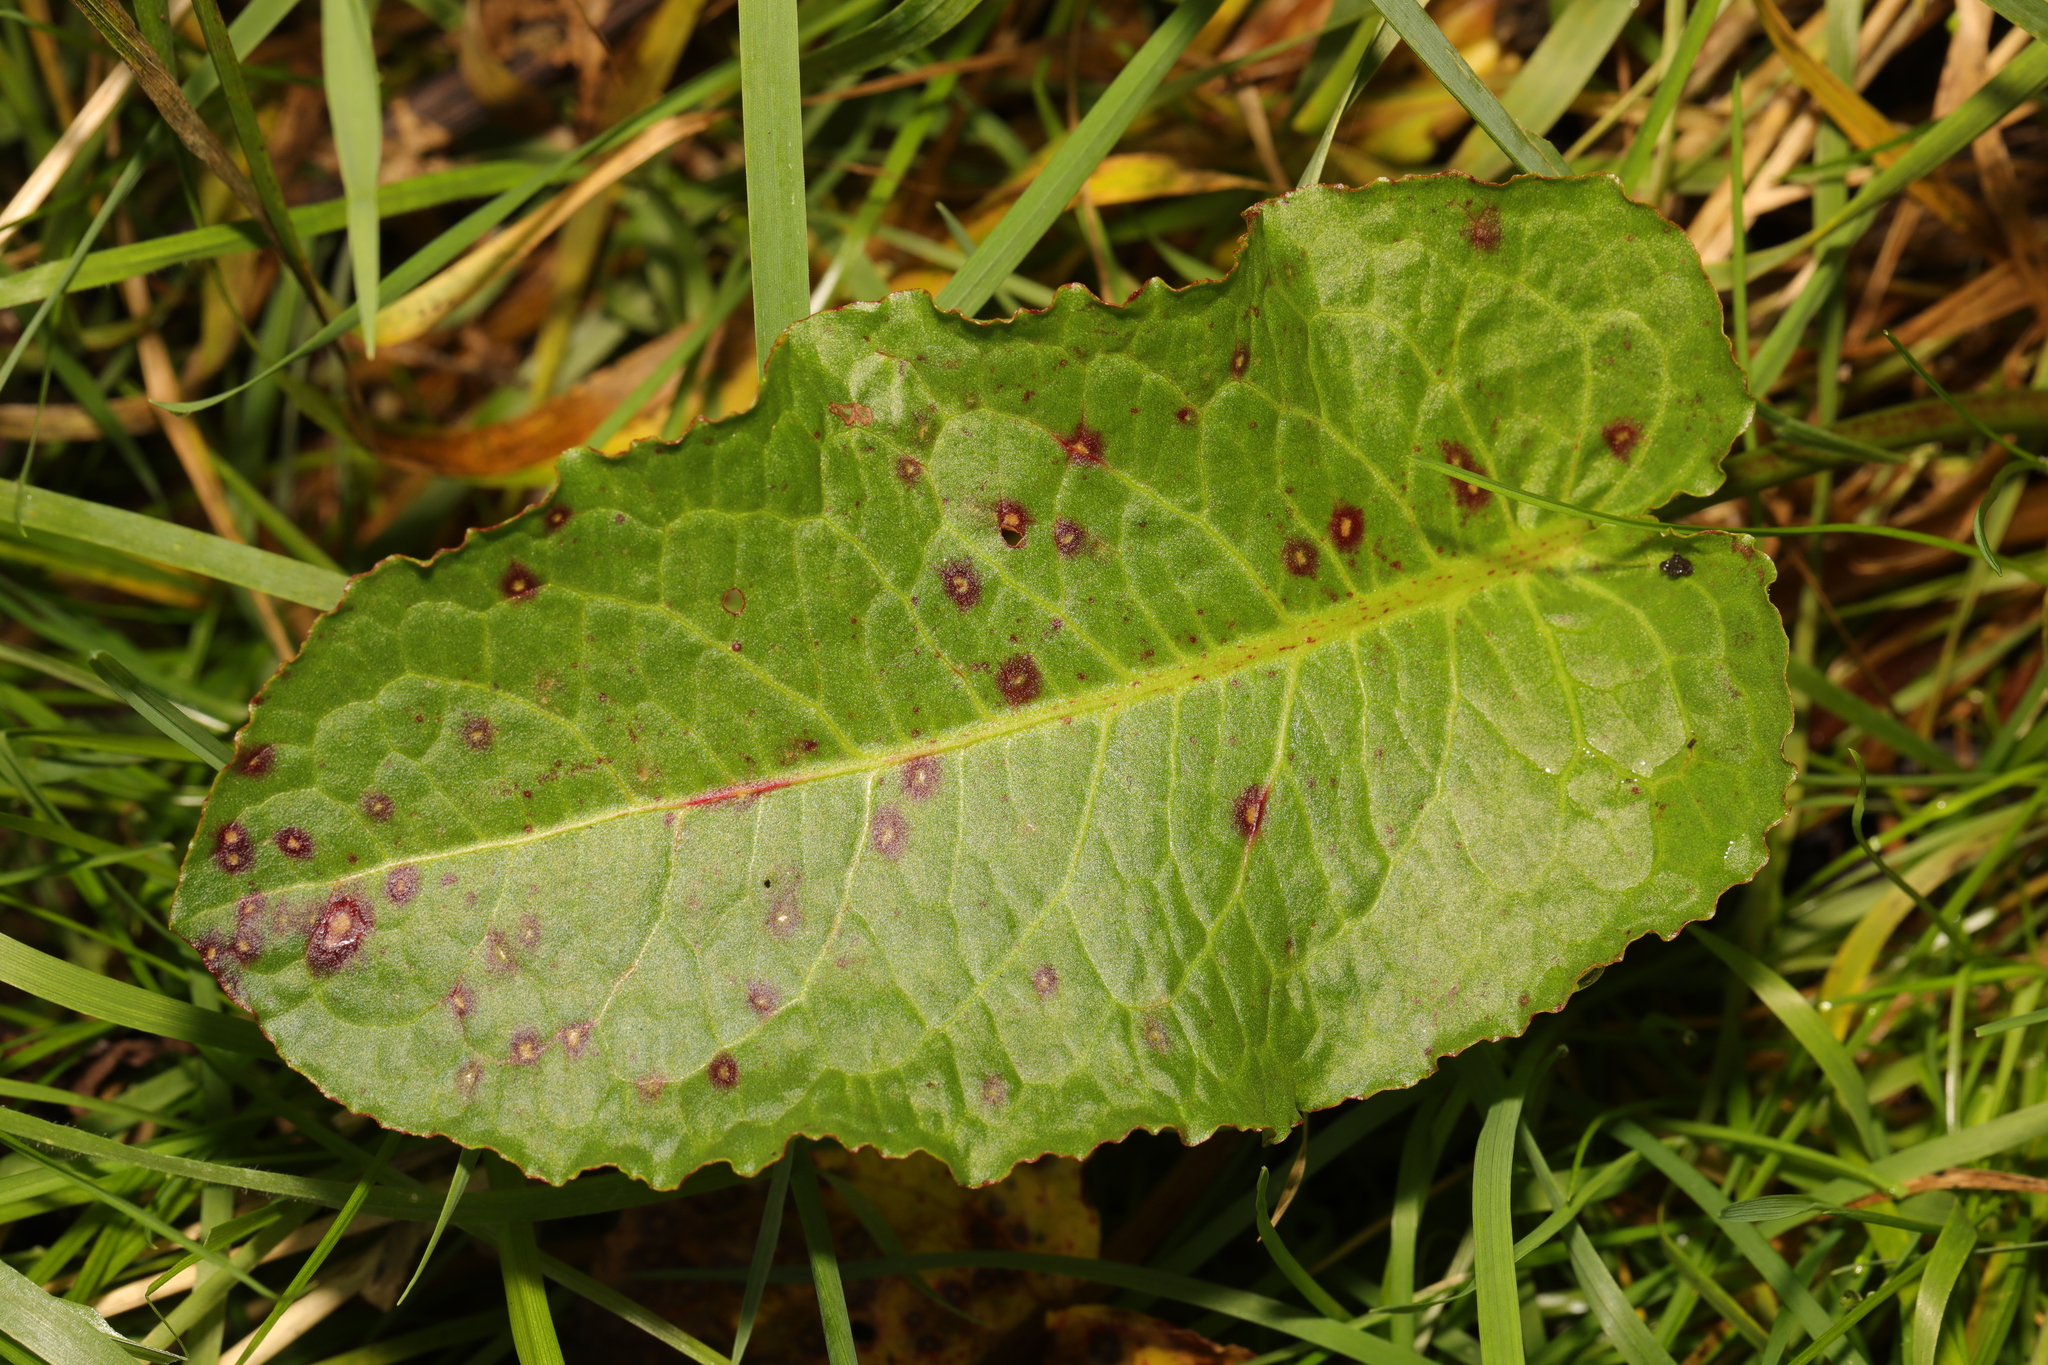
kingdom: Plantae
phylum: Tracheophyta
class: Magnoliopsida
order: Caryophyllales
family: Polygonaceae
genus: Rumex
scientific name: Rumex obtusifolius
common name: Bitter dock
